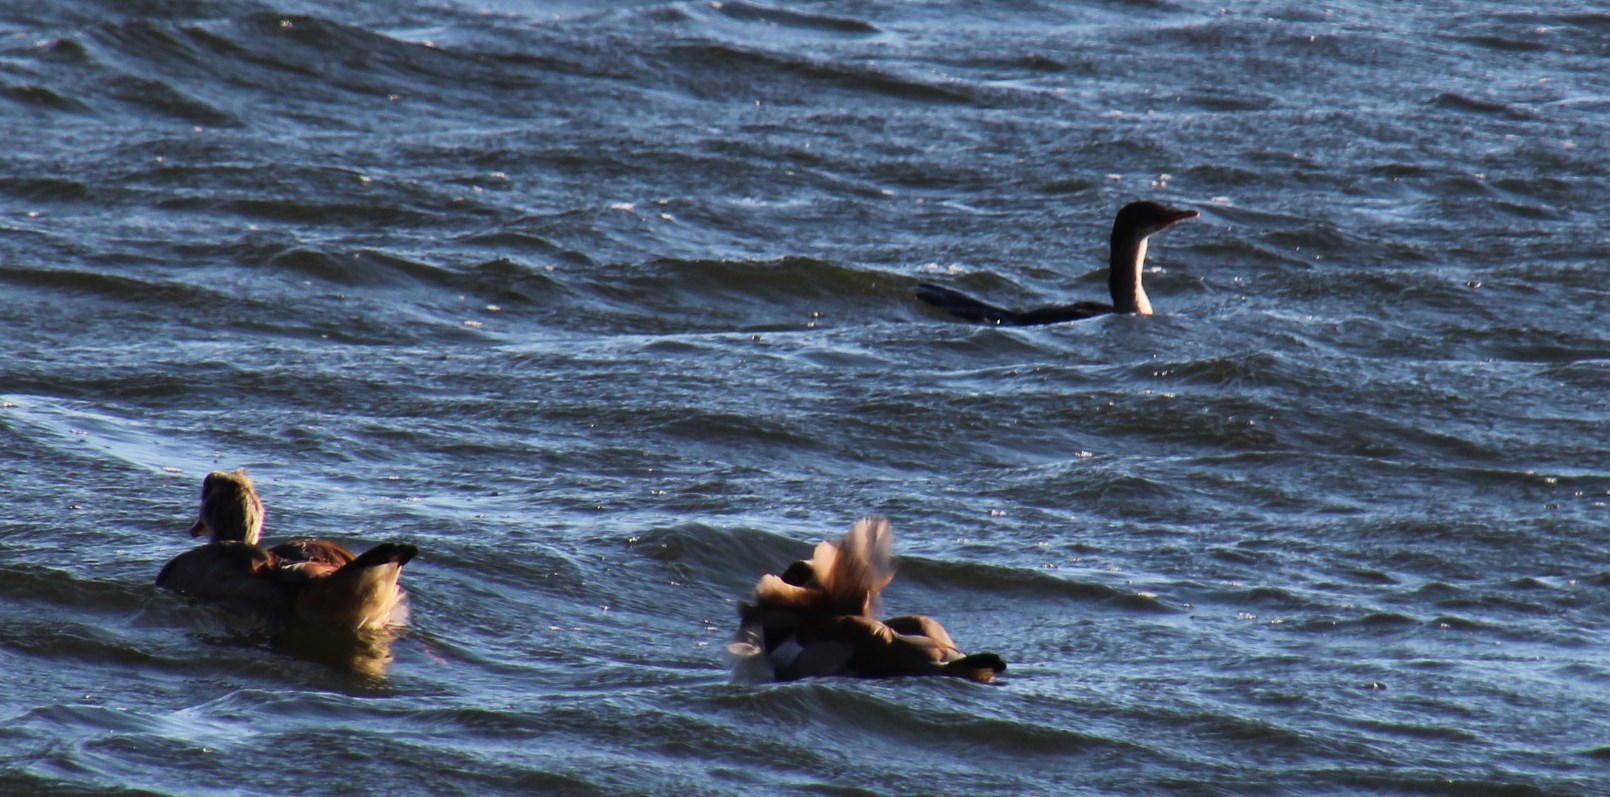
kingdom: Animalia
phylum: Chordata
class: Aves
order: Suliformes
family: Phalacrocoracidae
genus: Microcarbo
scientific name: Microcarbo africanus
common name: Long-tailed cormorant
